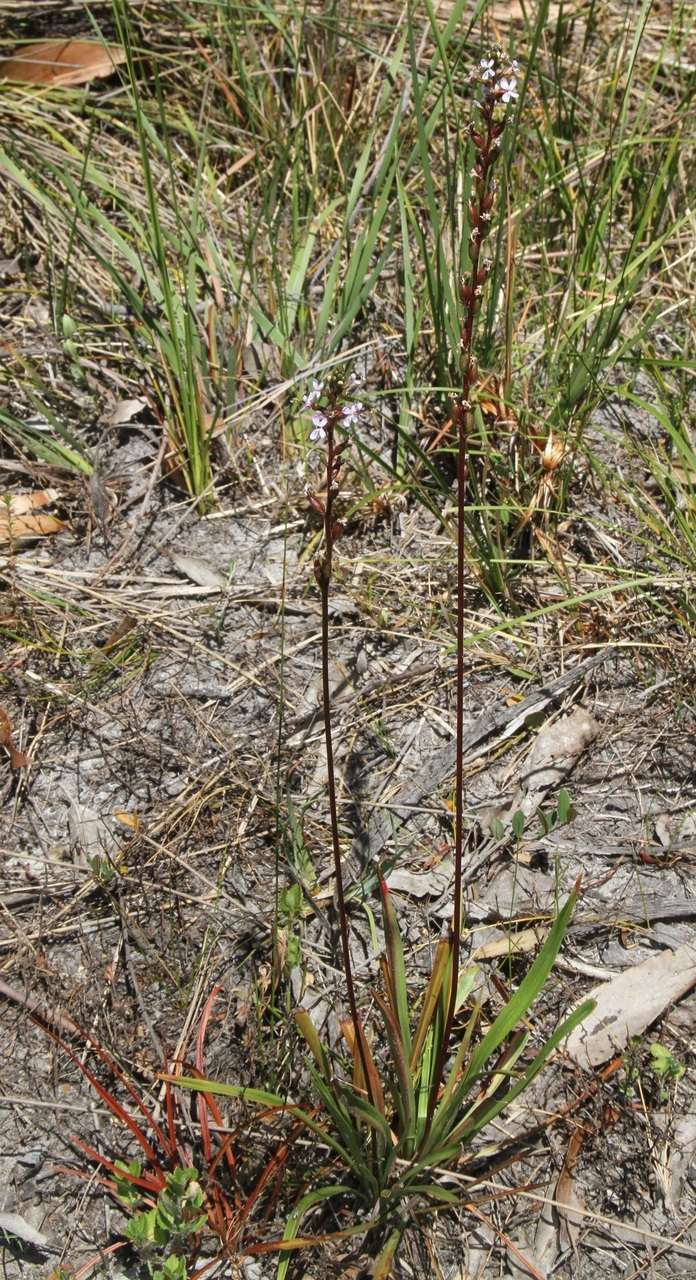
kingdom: Plantae
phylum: Tracheophyta
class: Magnoliopsida
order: Asterales
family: Stylidiaceae
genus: Stylidium
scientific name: Stylidium armeria
